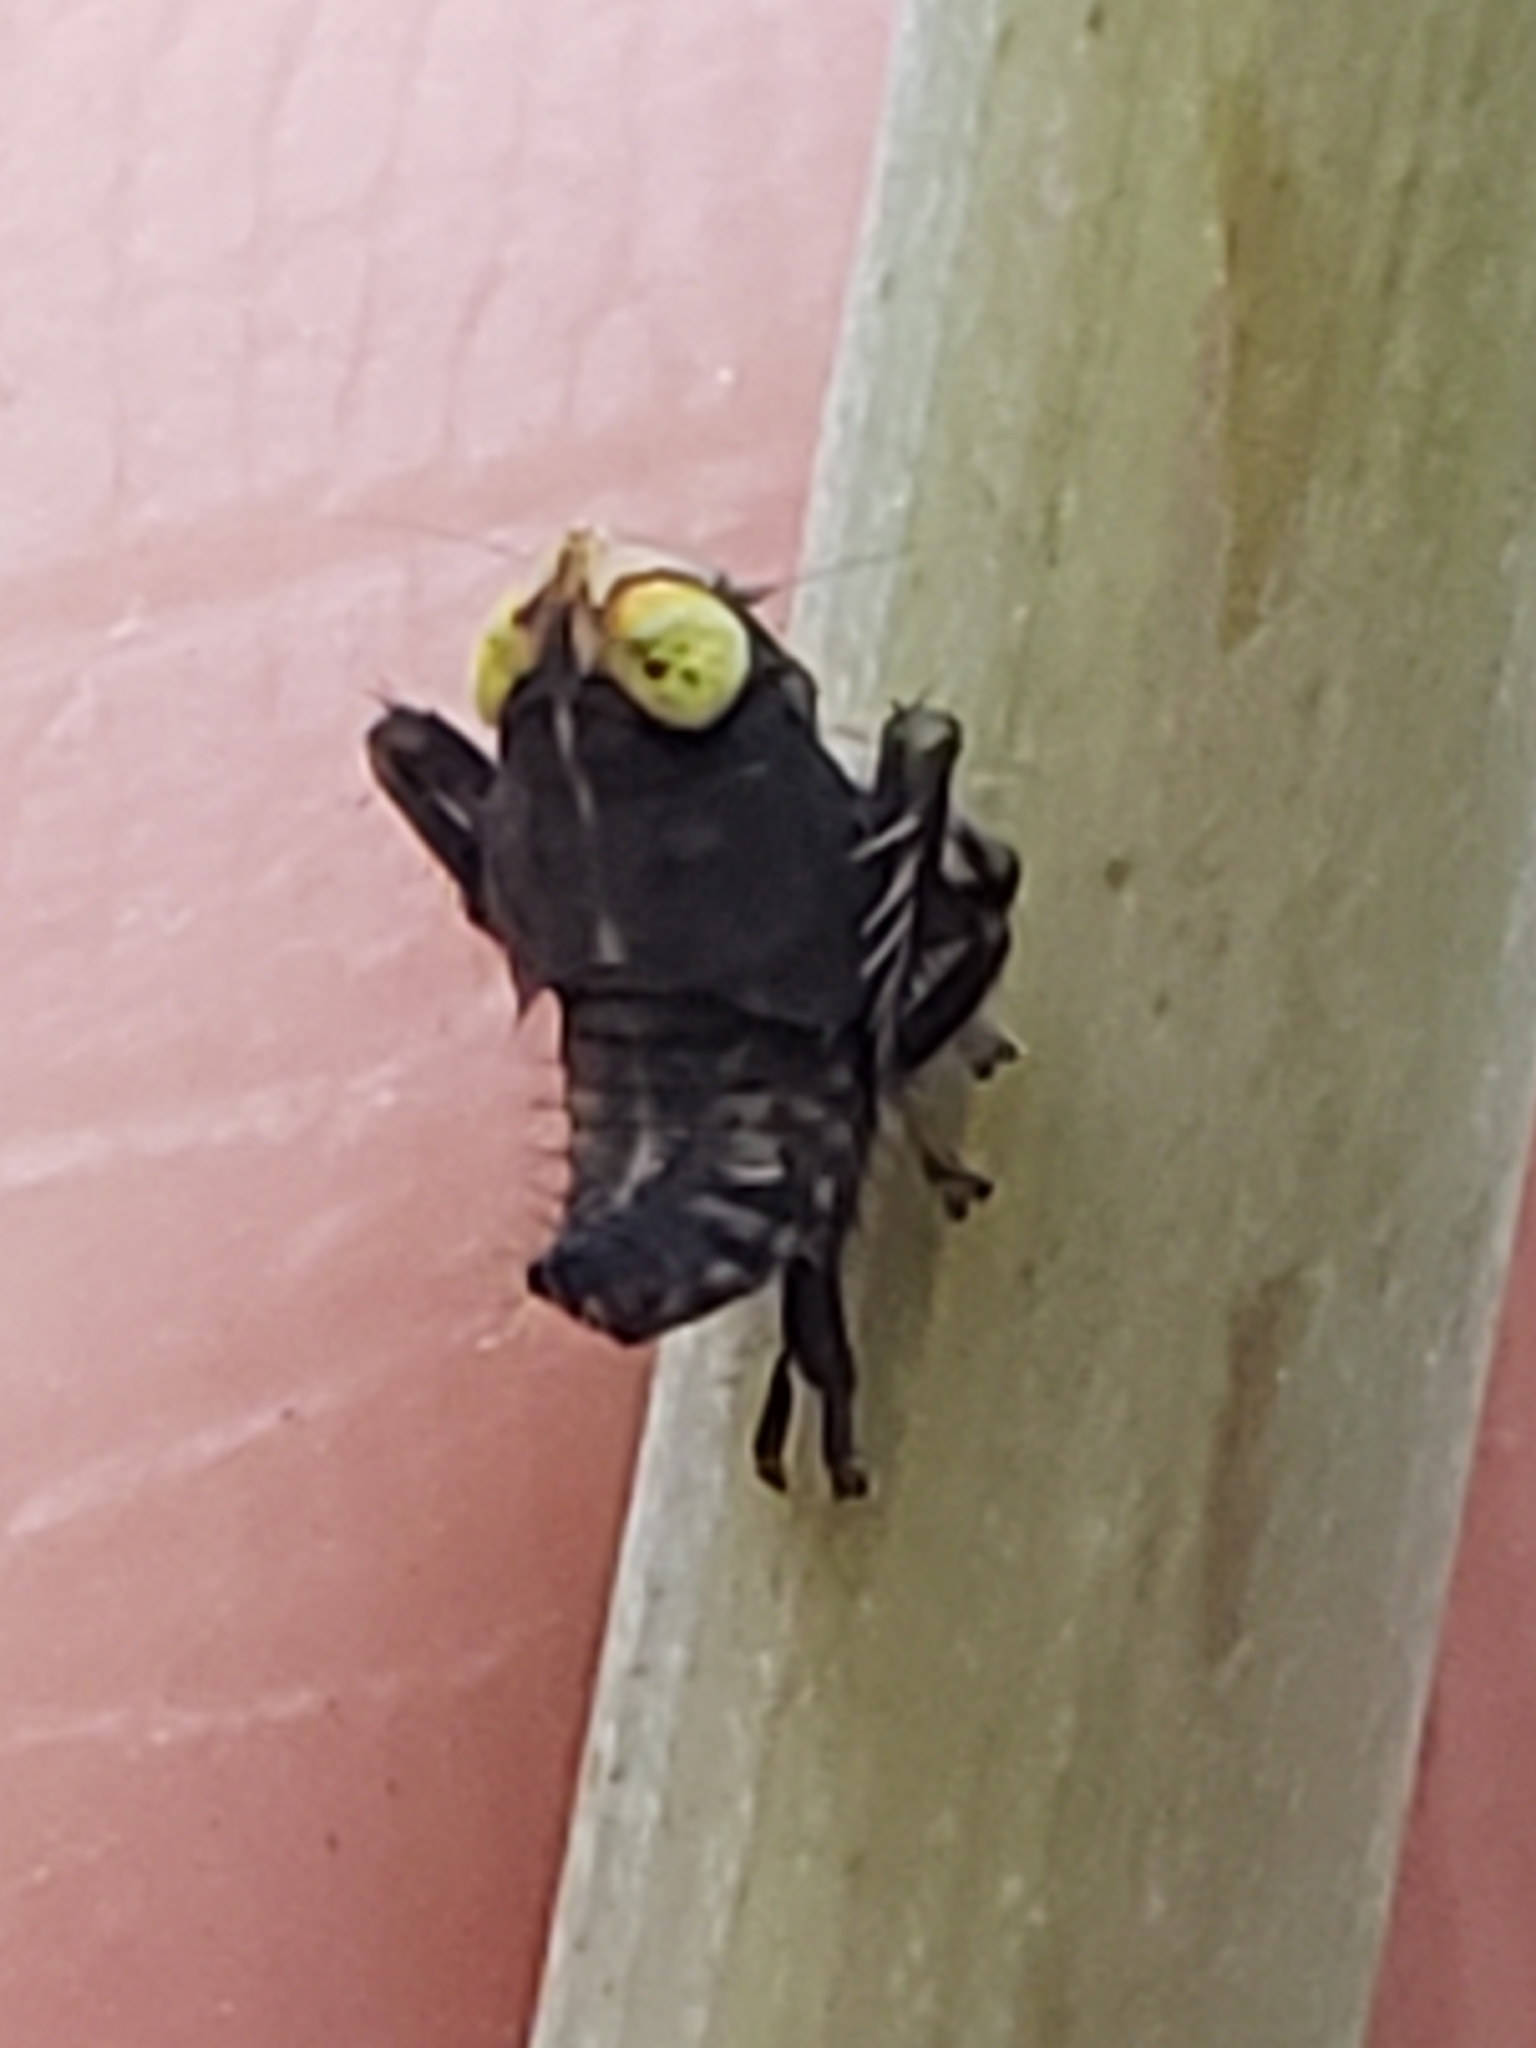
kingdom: Animalia
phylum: Arthropoda
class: Insecta
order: Hemiptera
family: Cicadellidae
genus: Jikradia
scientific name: Jikradia olitoria
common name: Coppery leafhopper
